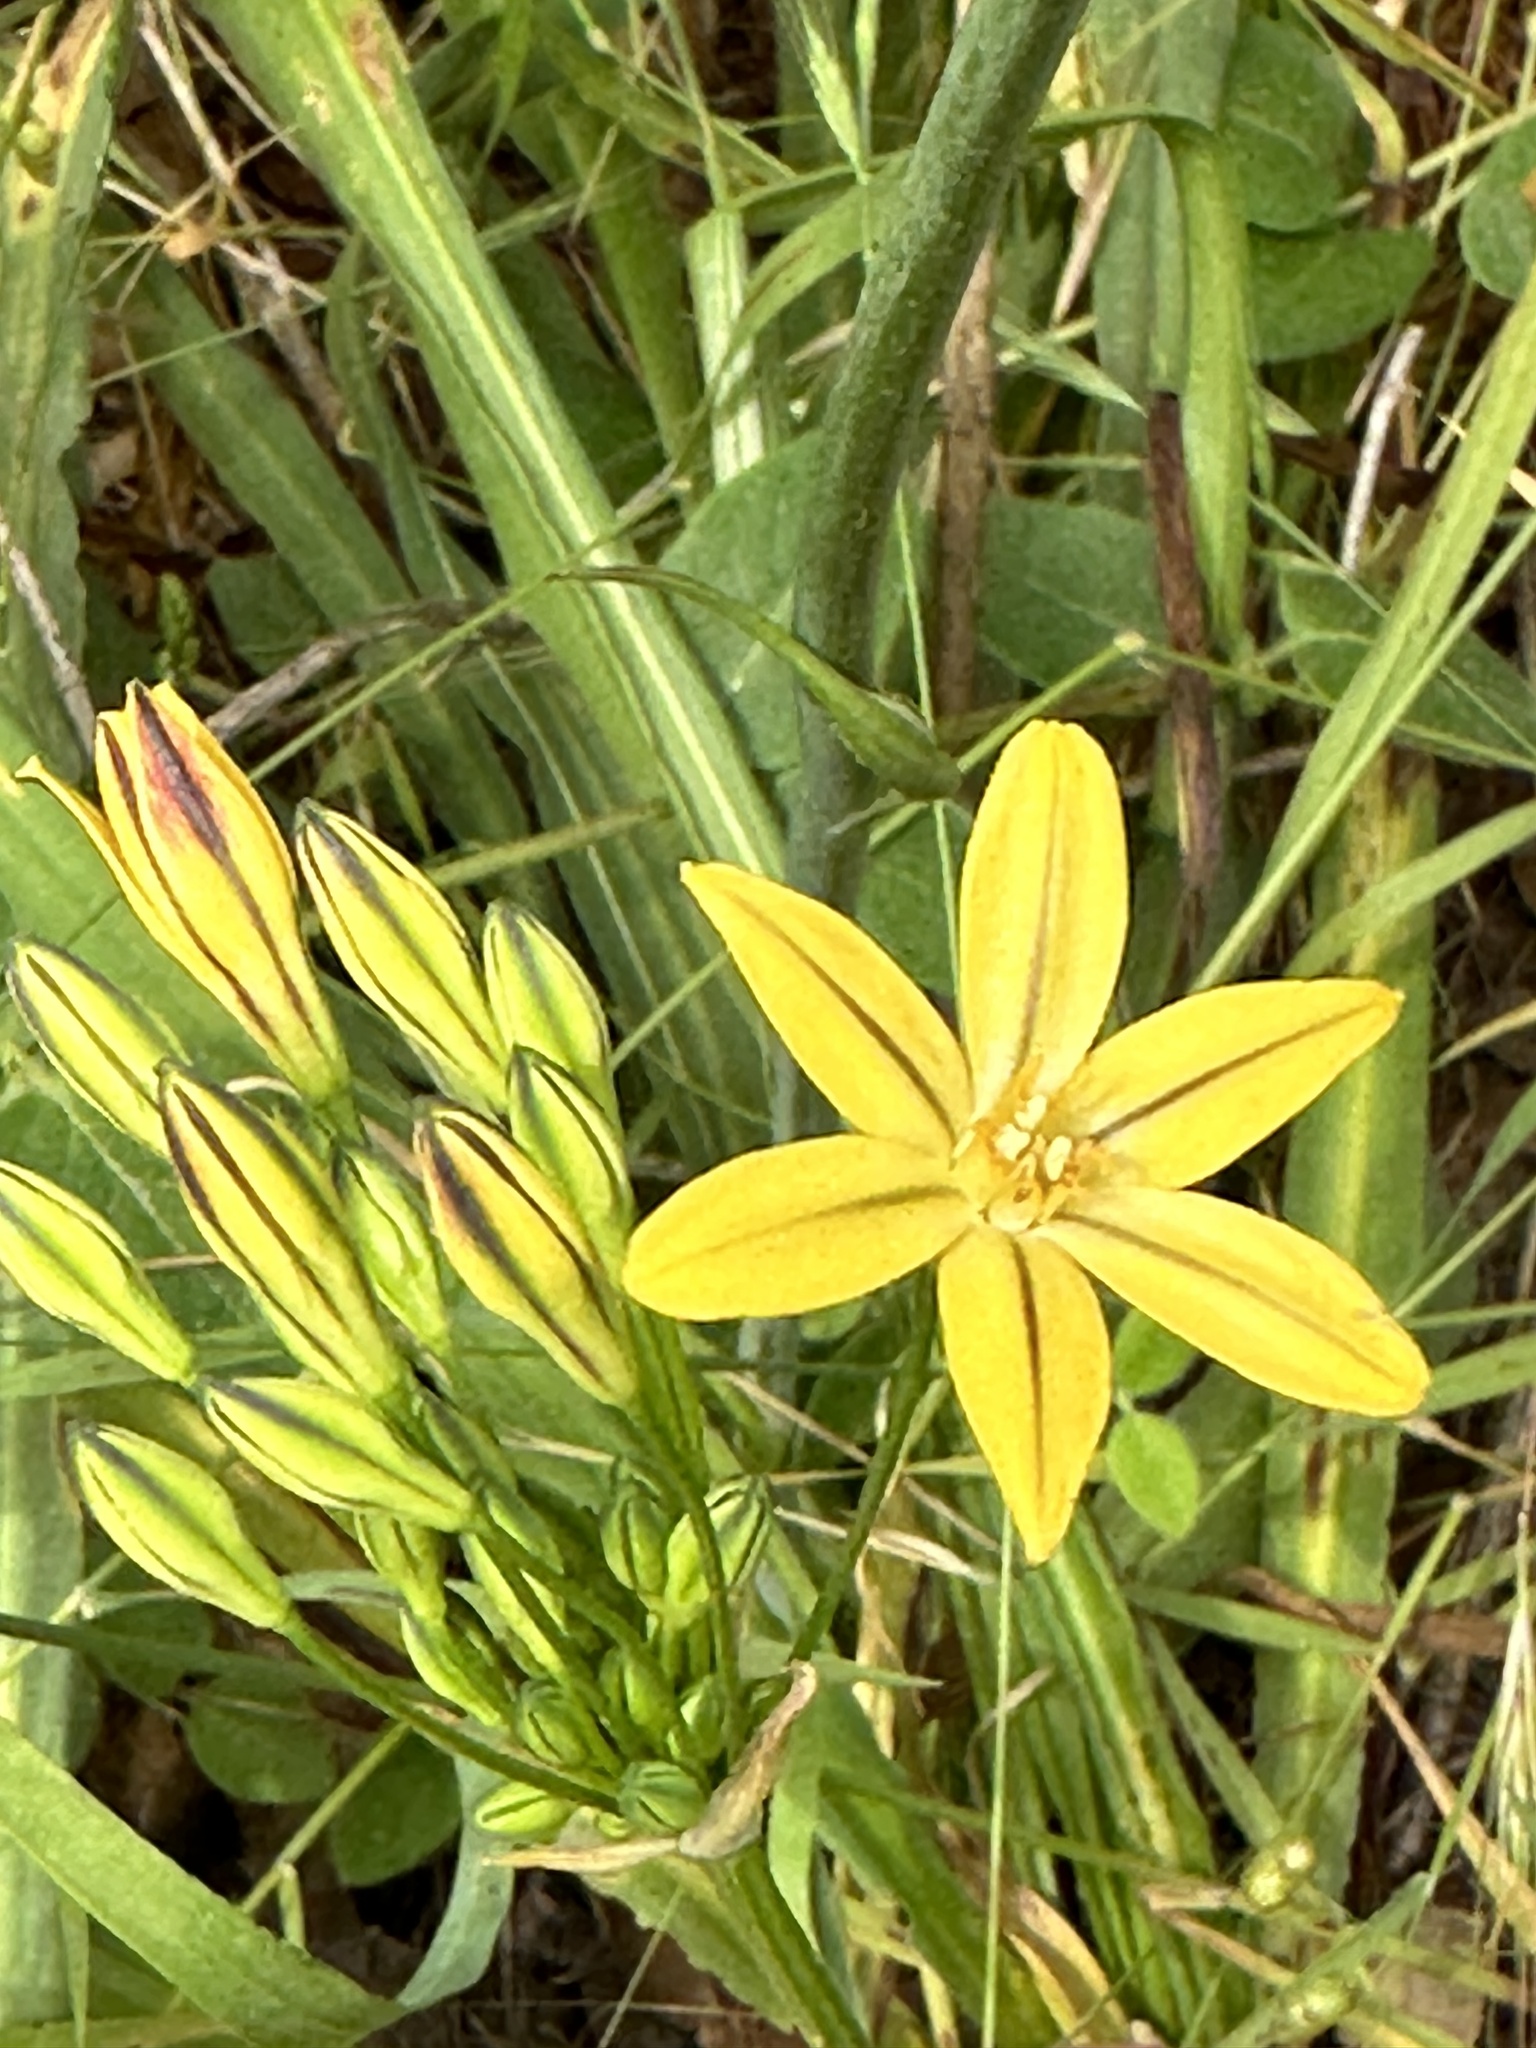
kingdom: Plantae
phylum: Tracheophyta
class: Liliopsida
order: Asparagales
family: Asparagaceae
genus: Triteleia
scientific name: Triteleia ixioides
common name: Yellow-brodiaea
